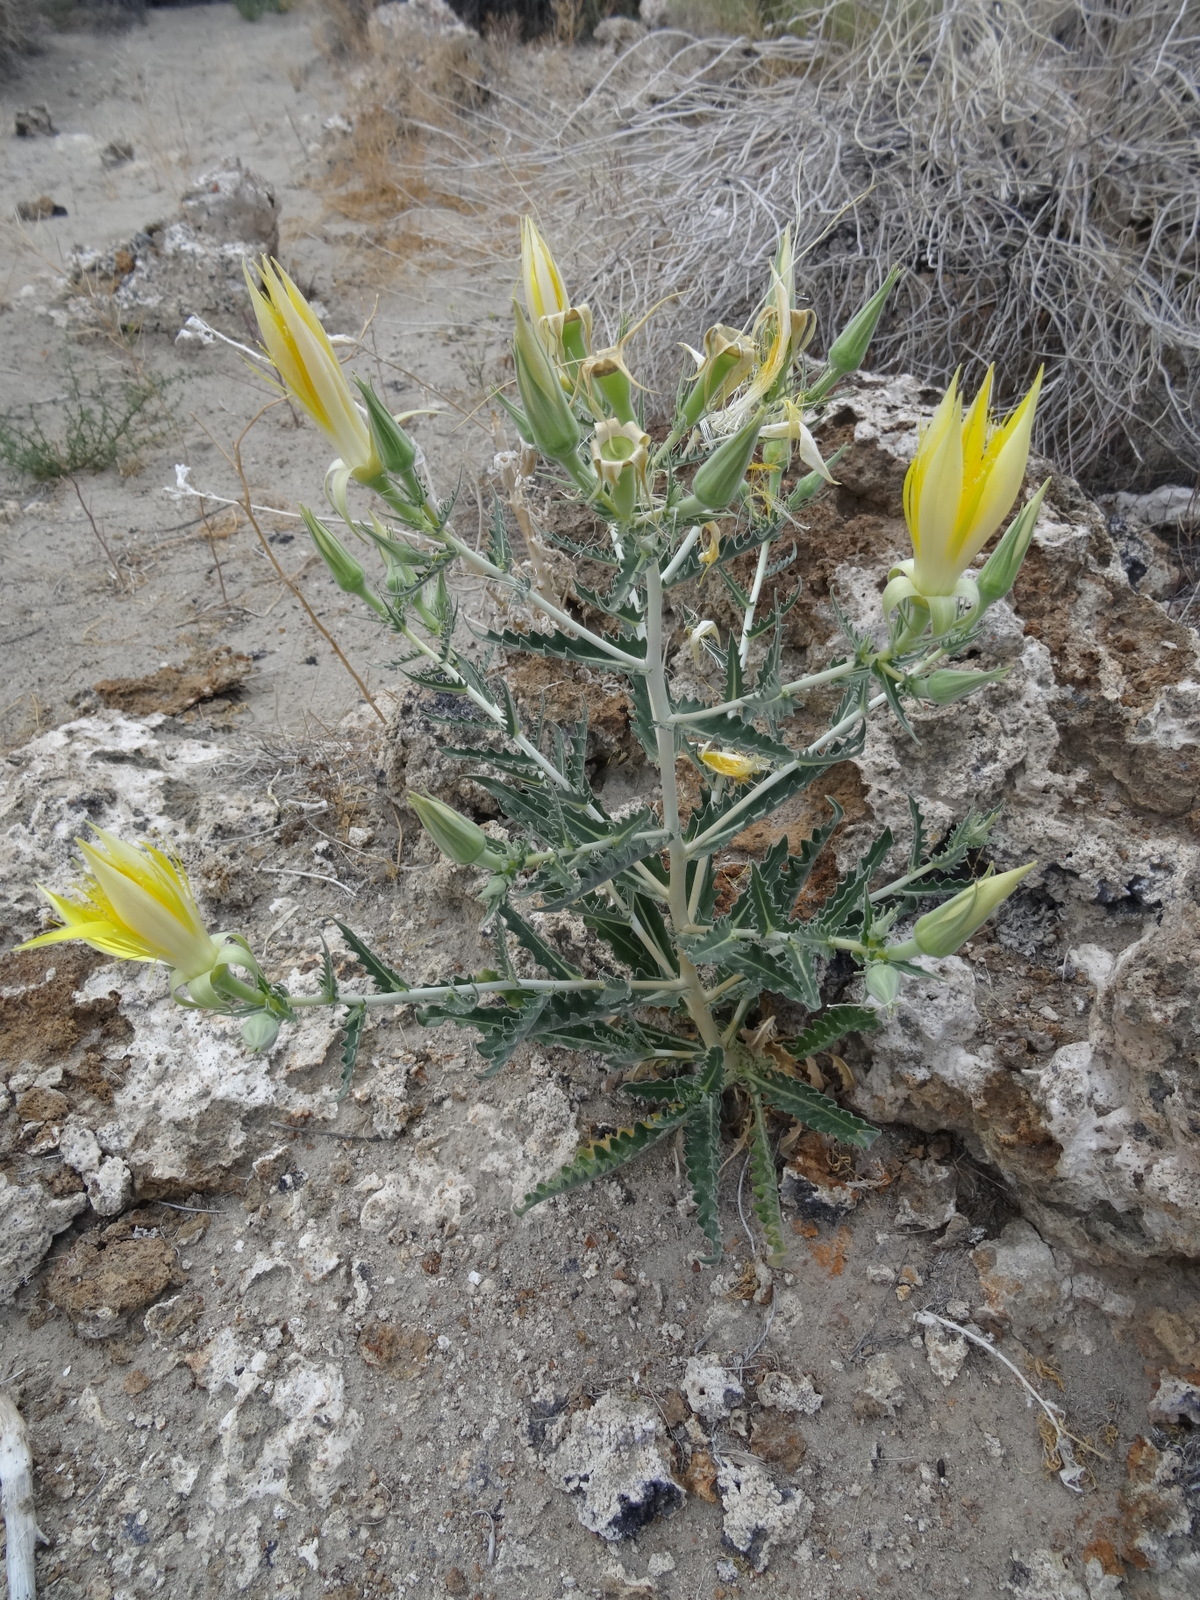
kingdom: Plantae
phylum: Tracheophyta
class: Magnoliopsida
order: Cornales
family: Loasaceae
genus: Mentzelia
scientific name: Mentzelia laevicaulis
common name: Smooth-stem blazingstar
